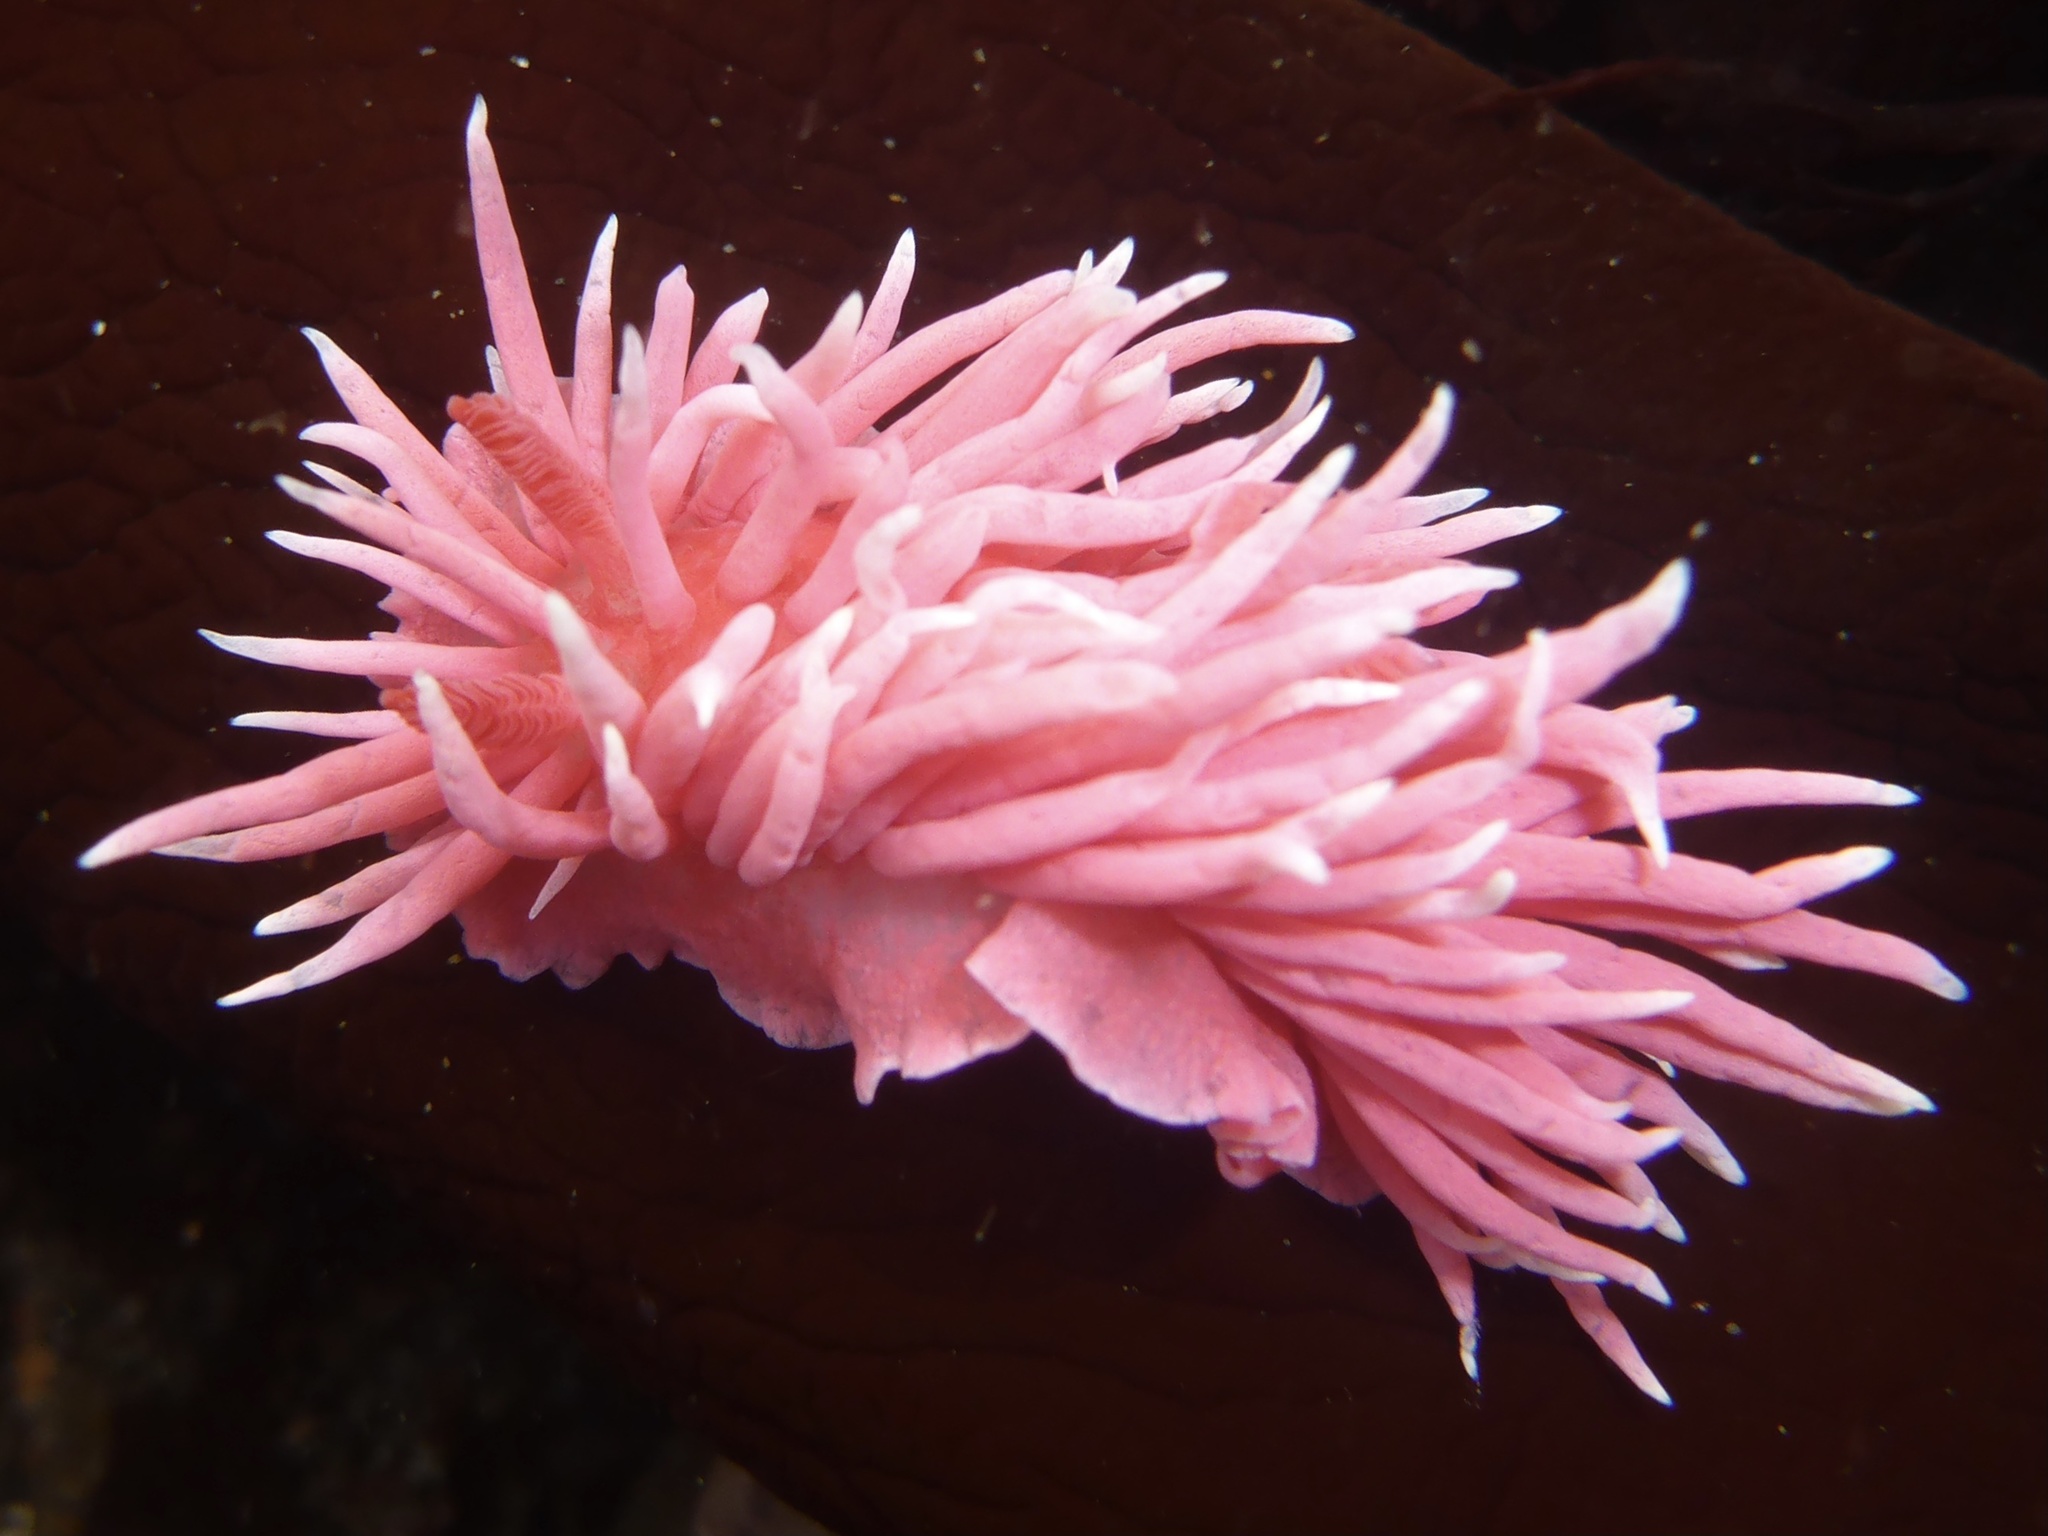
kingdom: Animalia
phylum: Mollusca
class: Gastropoda
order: Nudibranchia
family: Goniodorididae
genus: Okenia
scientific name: Okenia
